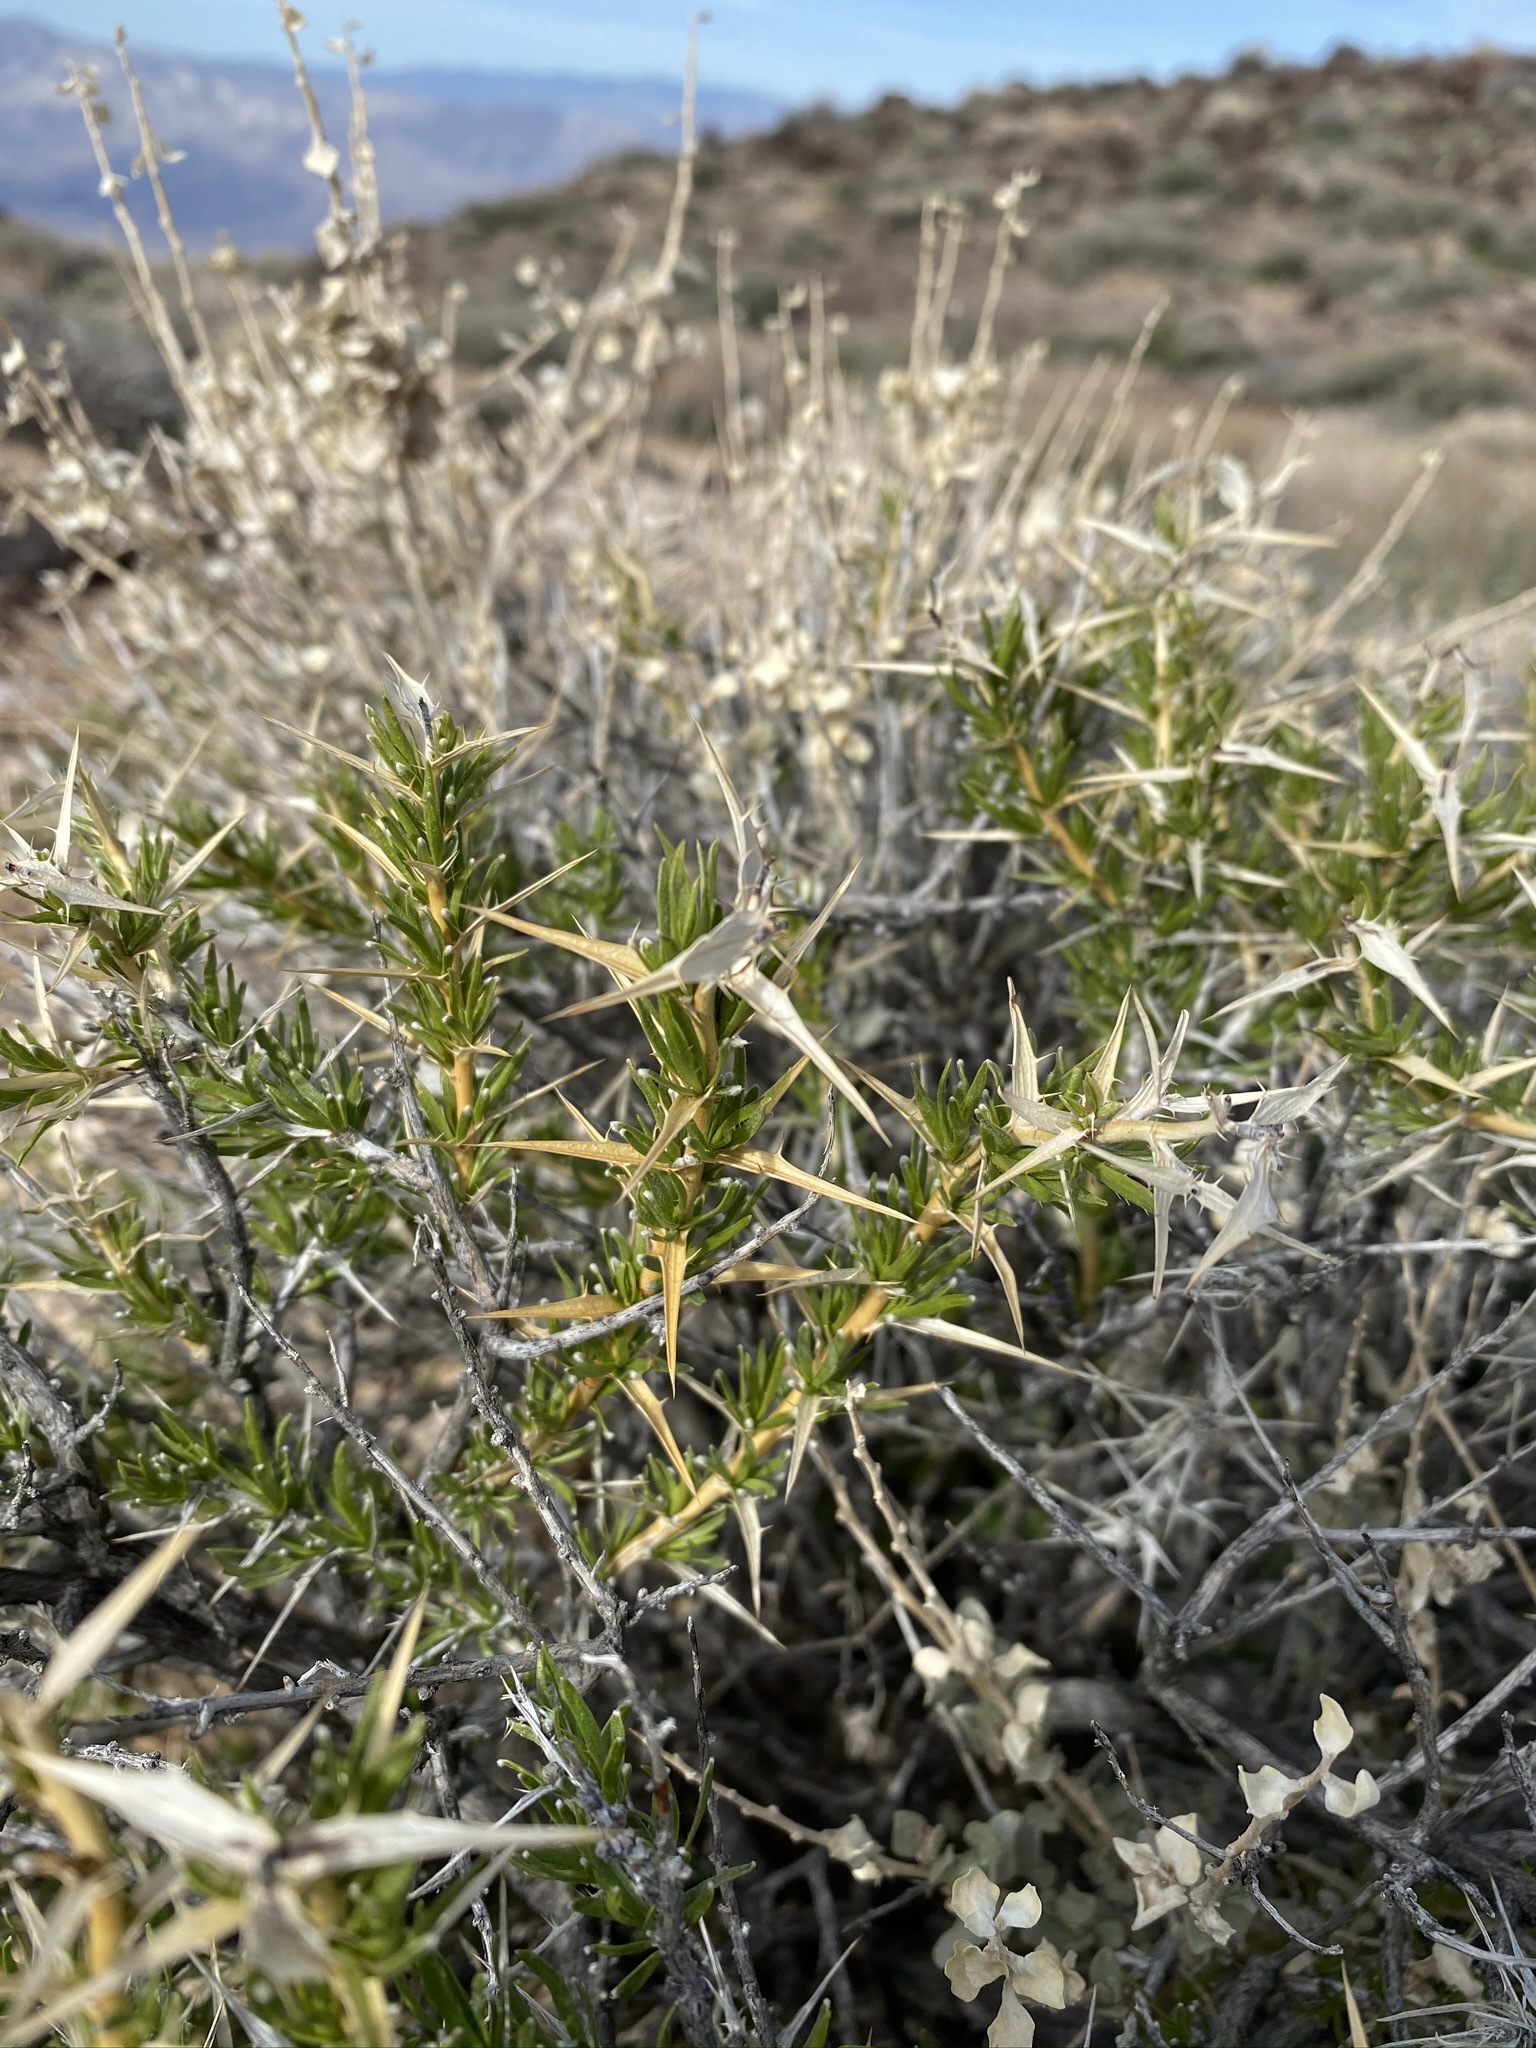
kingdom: Plantae
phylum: Tracheophyta
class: Magnoliopsida
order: Asterales
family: Asteraceae
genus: Hecastocleis
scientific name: Hecastocleis shockleyi
